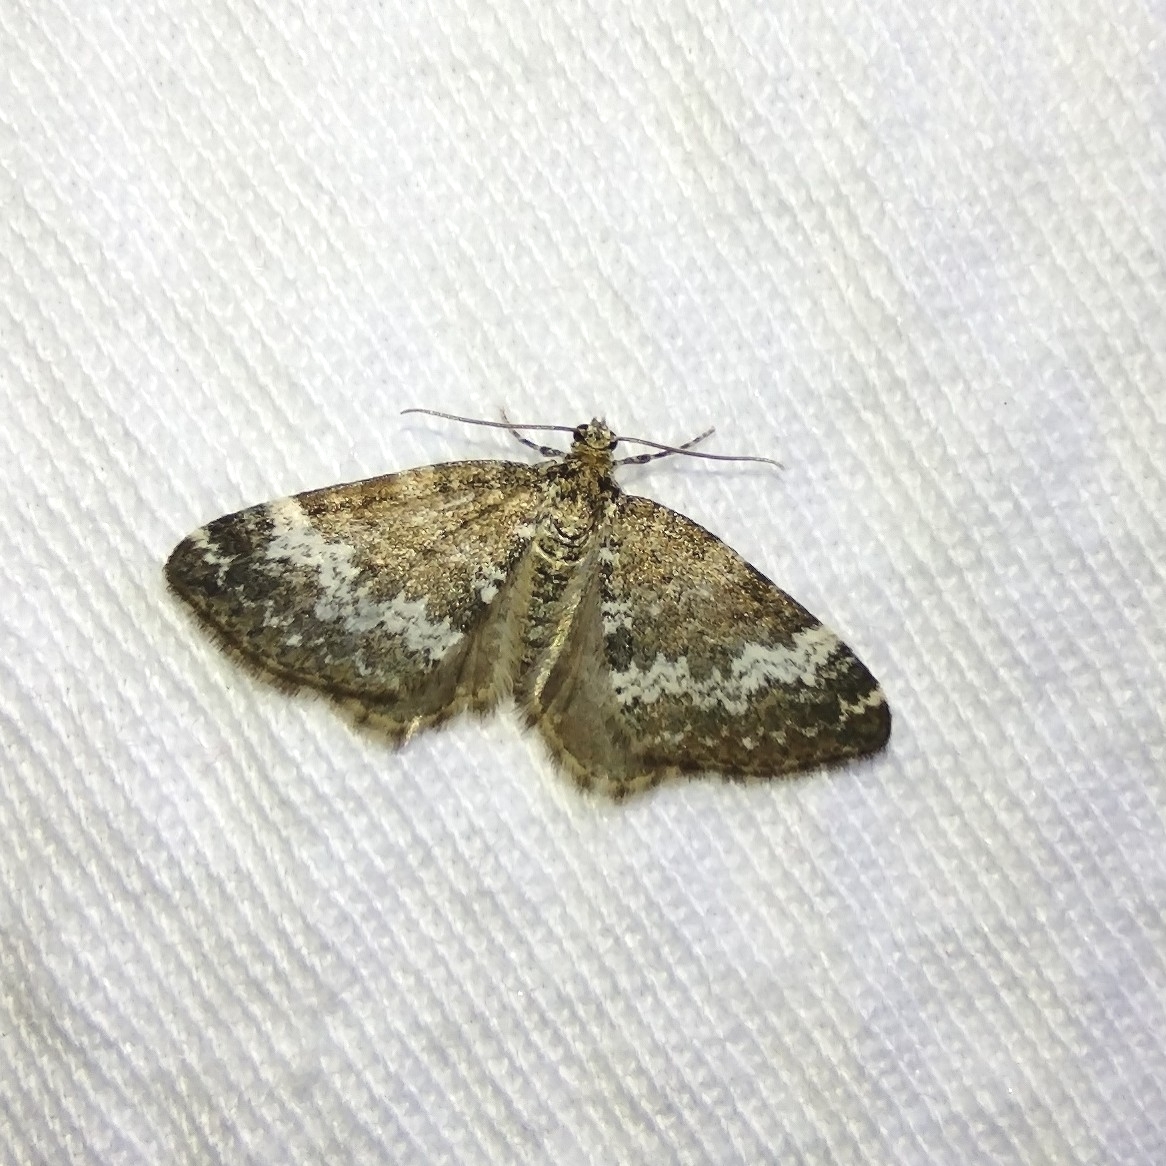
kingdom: Animalia
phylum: Arthropoda
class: Insecta
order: Lepidoptera
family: Geometridae
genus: Perizoma
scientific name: Perizoma alchemillata
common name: Small rivulet
